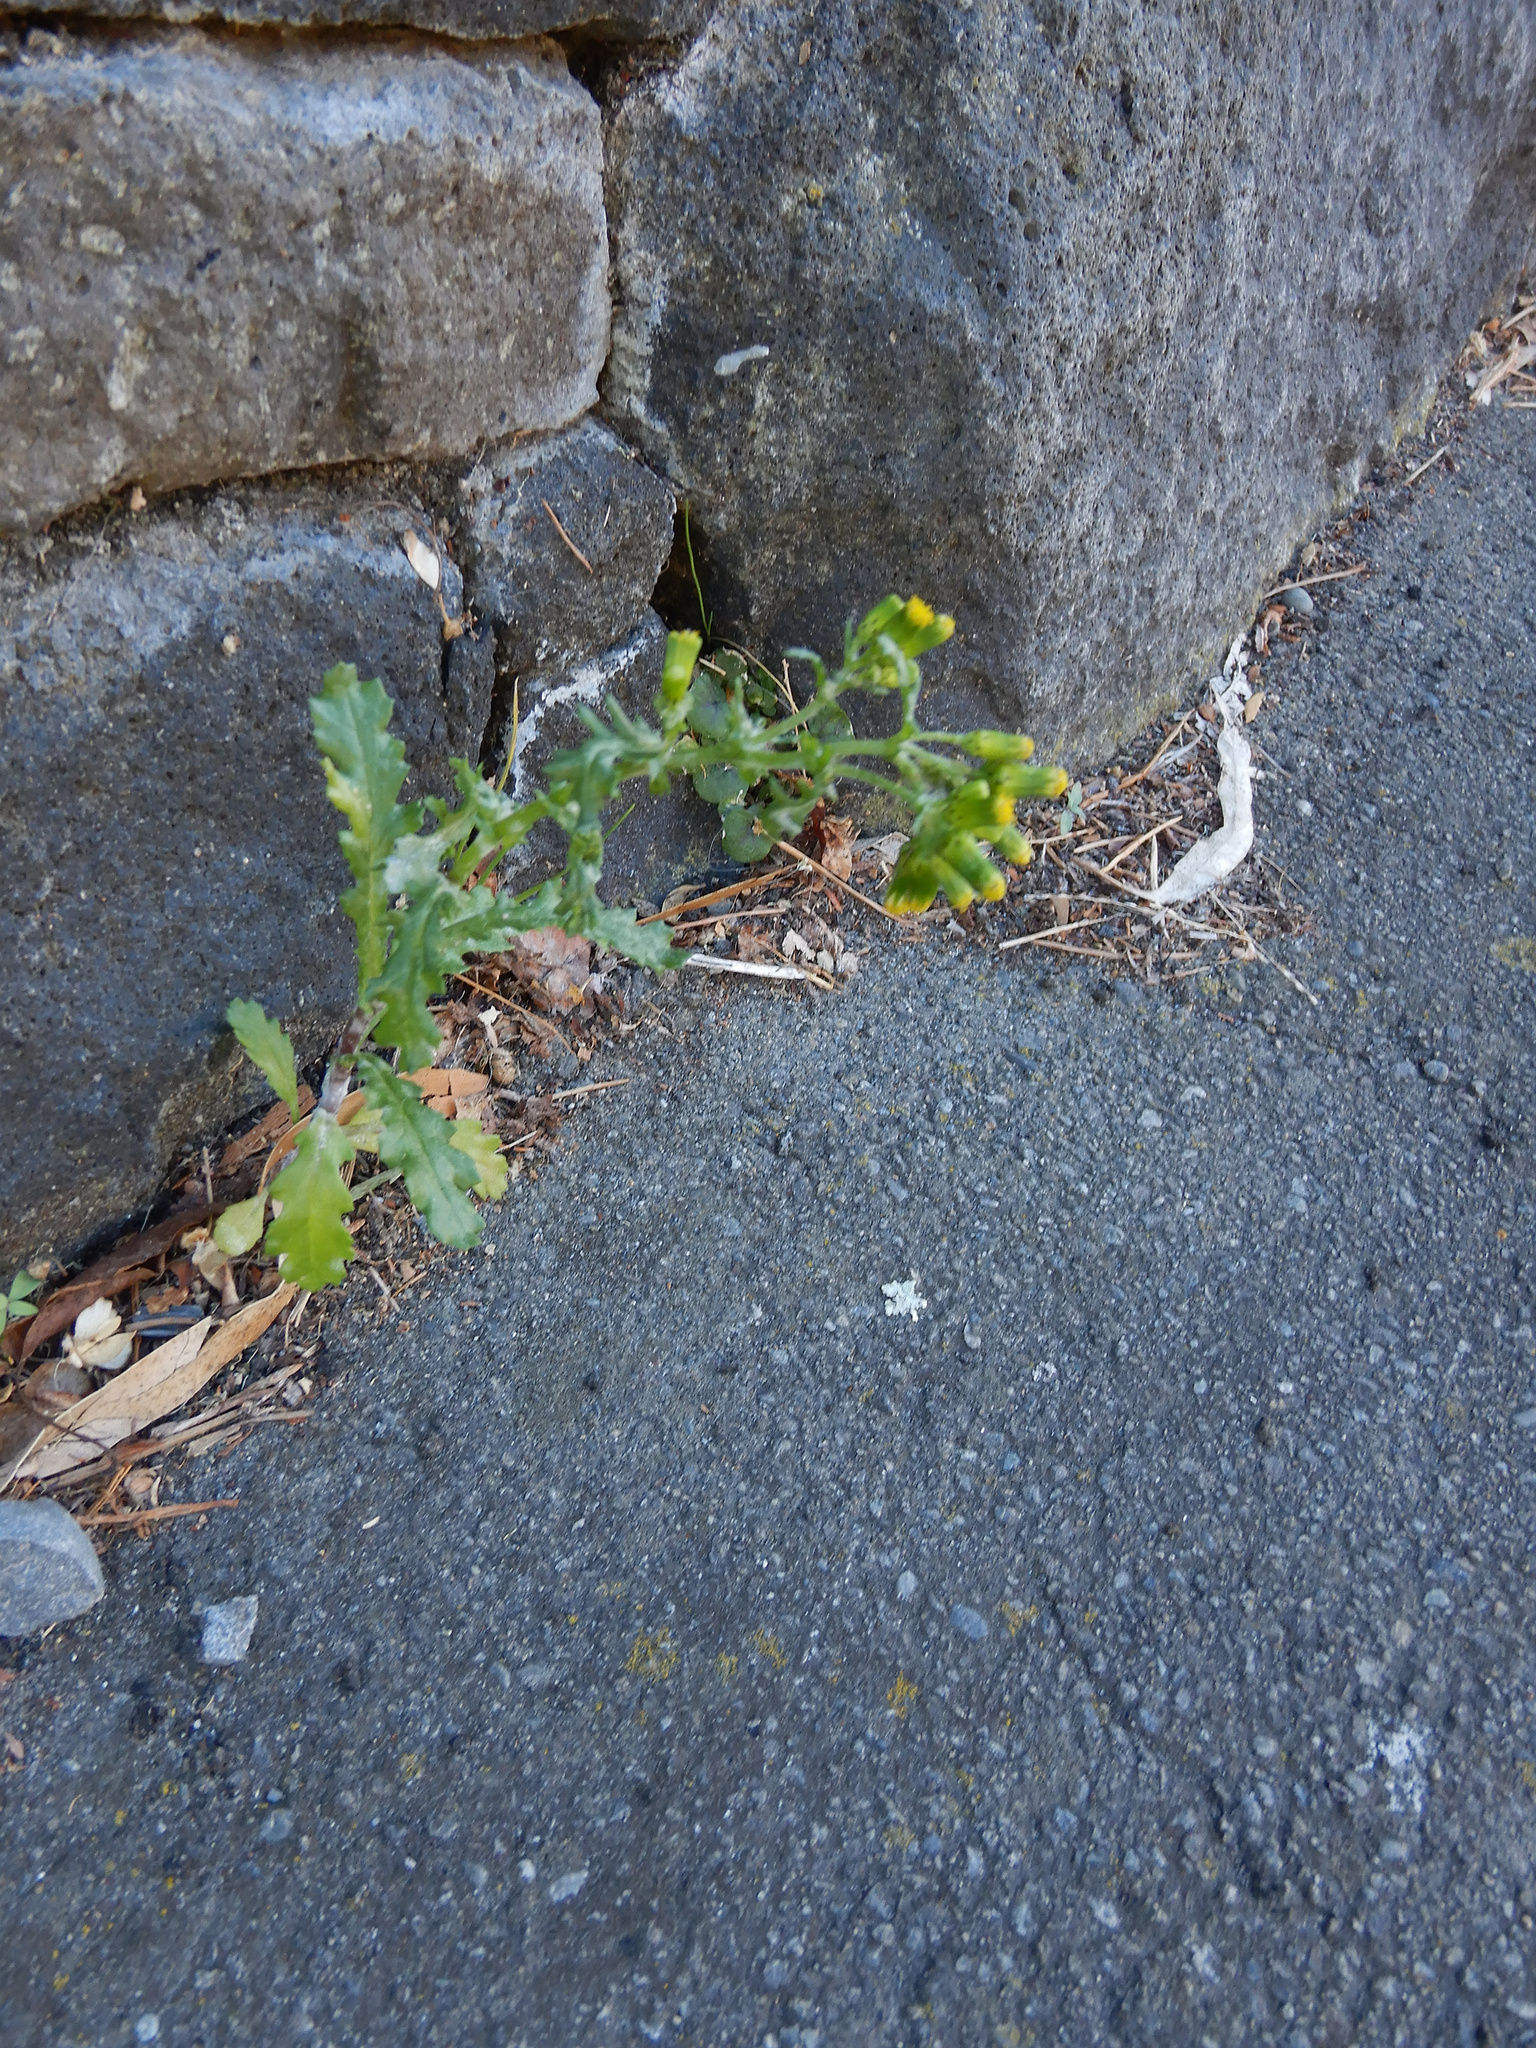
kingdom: Plantae
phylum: Tracheophyta
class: Magnoliopsida
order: Asterales
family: Asteraceae
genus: Senecio
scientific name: Senecio vulgaris
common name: Old-man-in-the-spring
